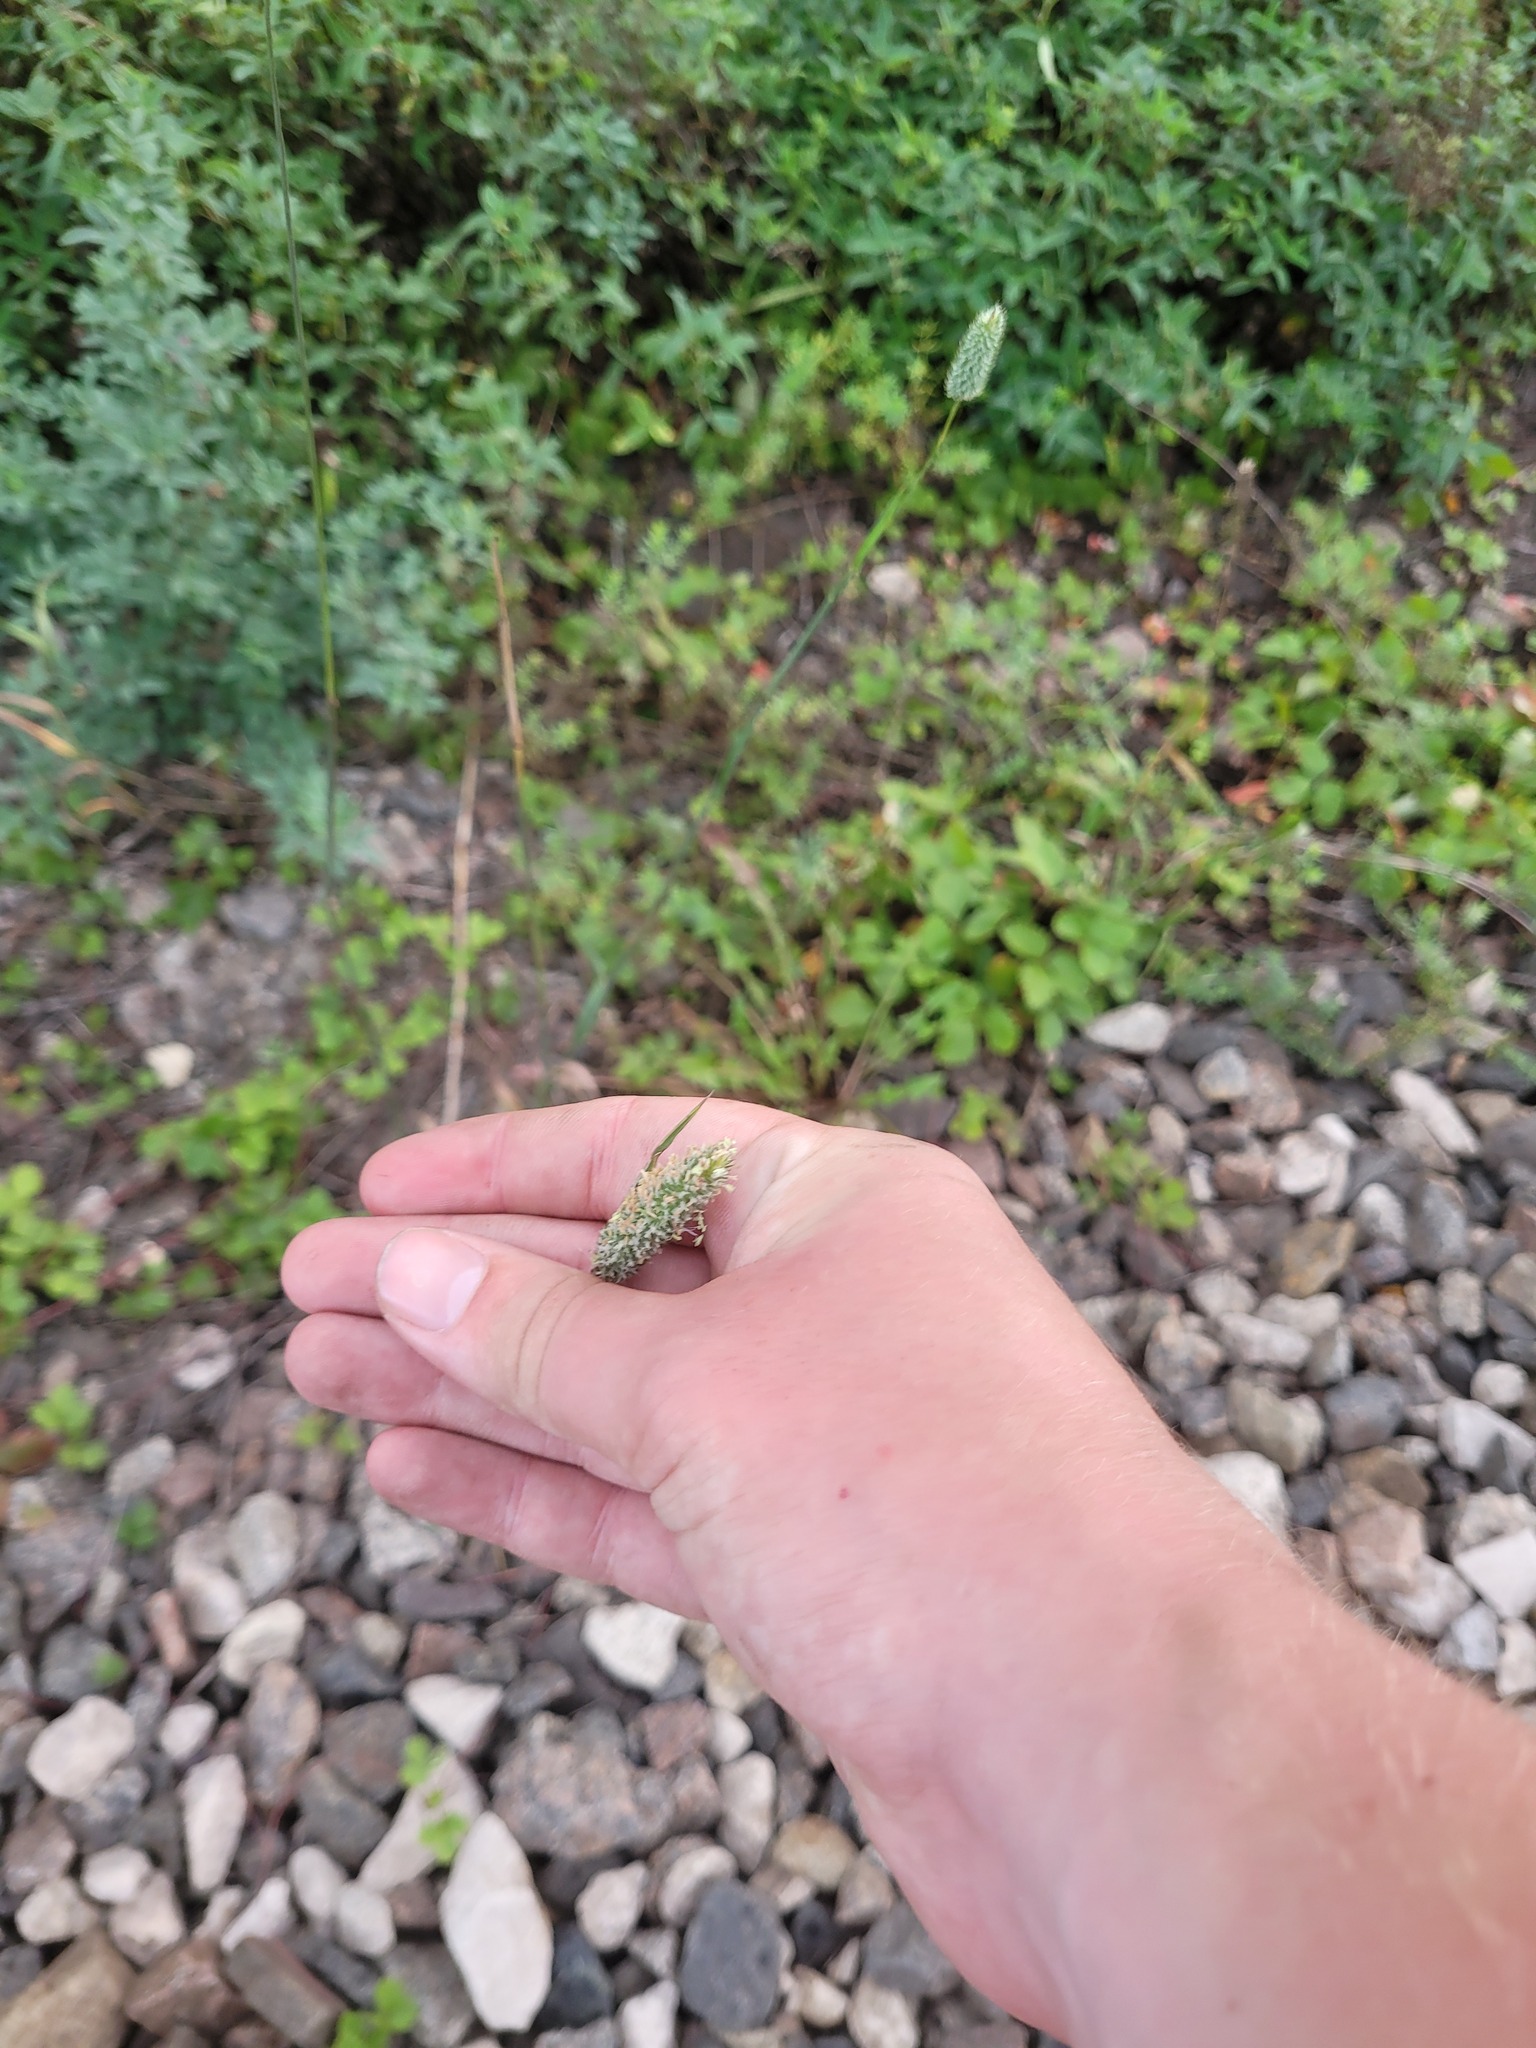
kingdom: Plantae
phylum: Tracheophyta
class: Liliopsida
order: Poales
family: Poaceae
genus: Phleum
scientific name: Phleum pratense
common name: Timothy grass
